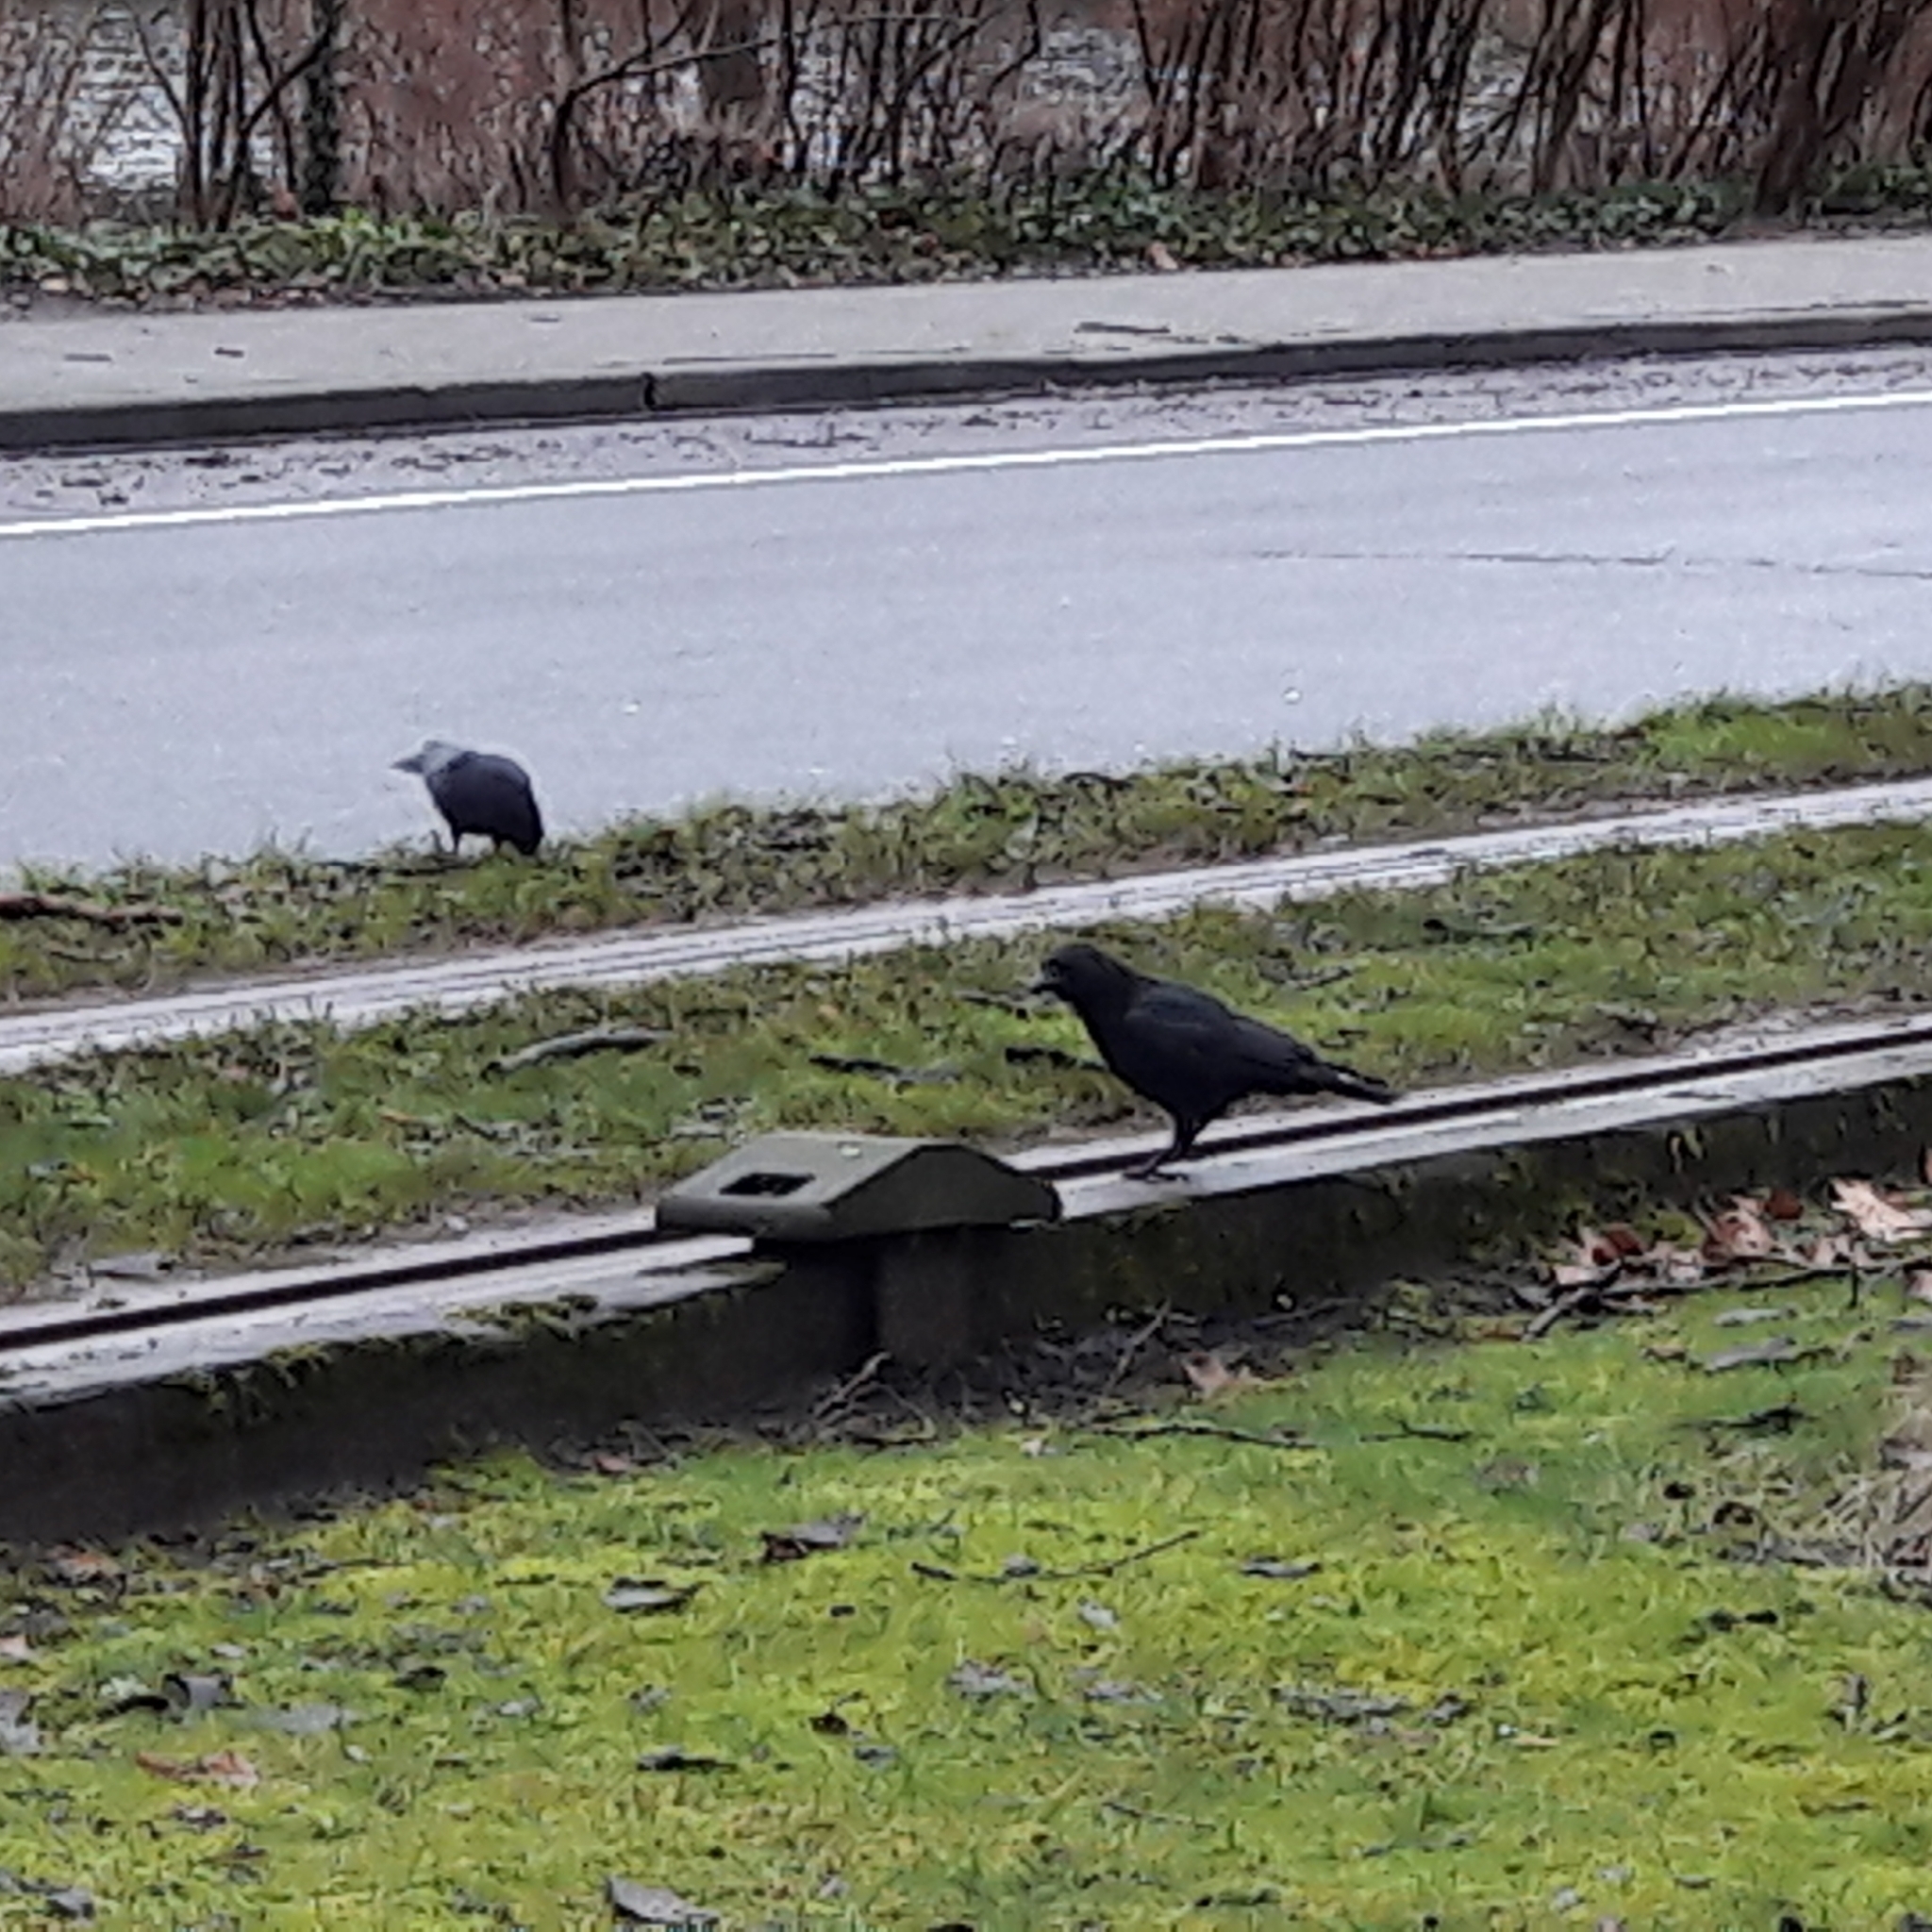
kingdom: Animalia
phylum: Chordata
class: Aves
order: Passeriformes
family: Corvidae
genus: Corvus
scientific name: Corvus corone
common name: Carrion crow
